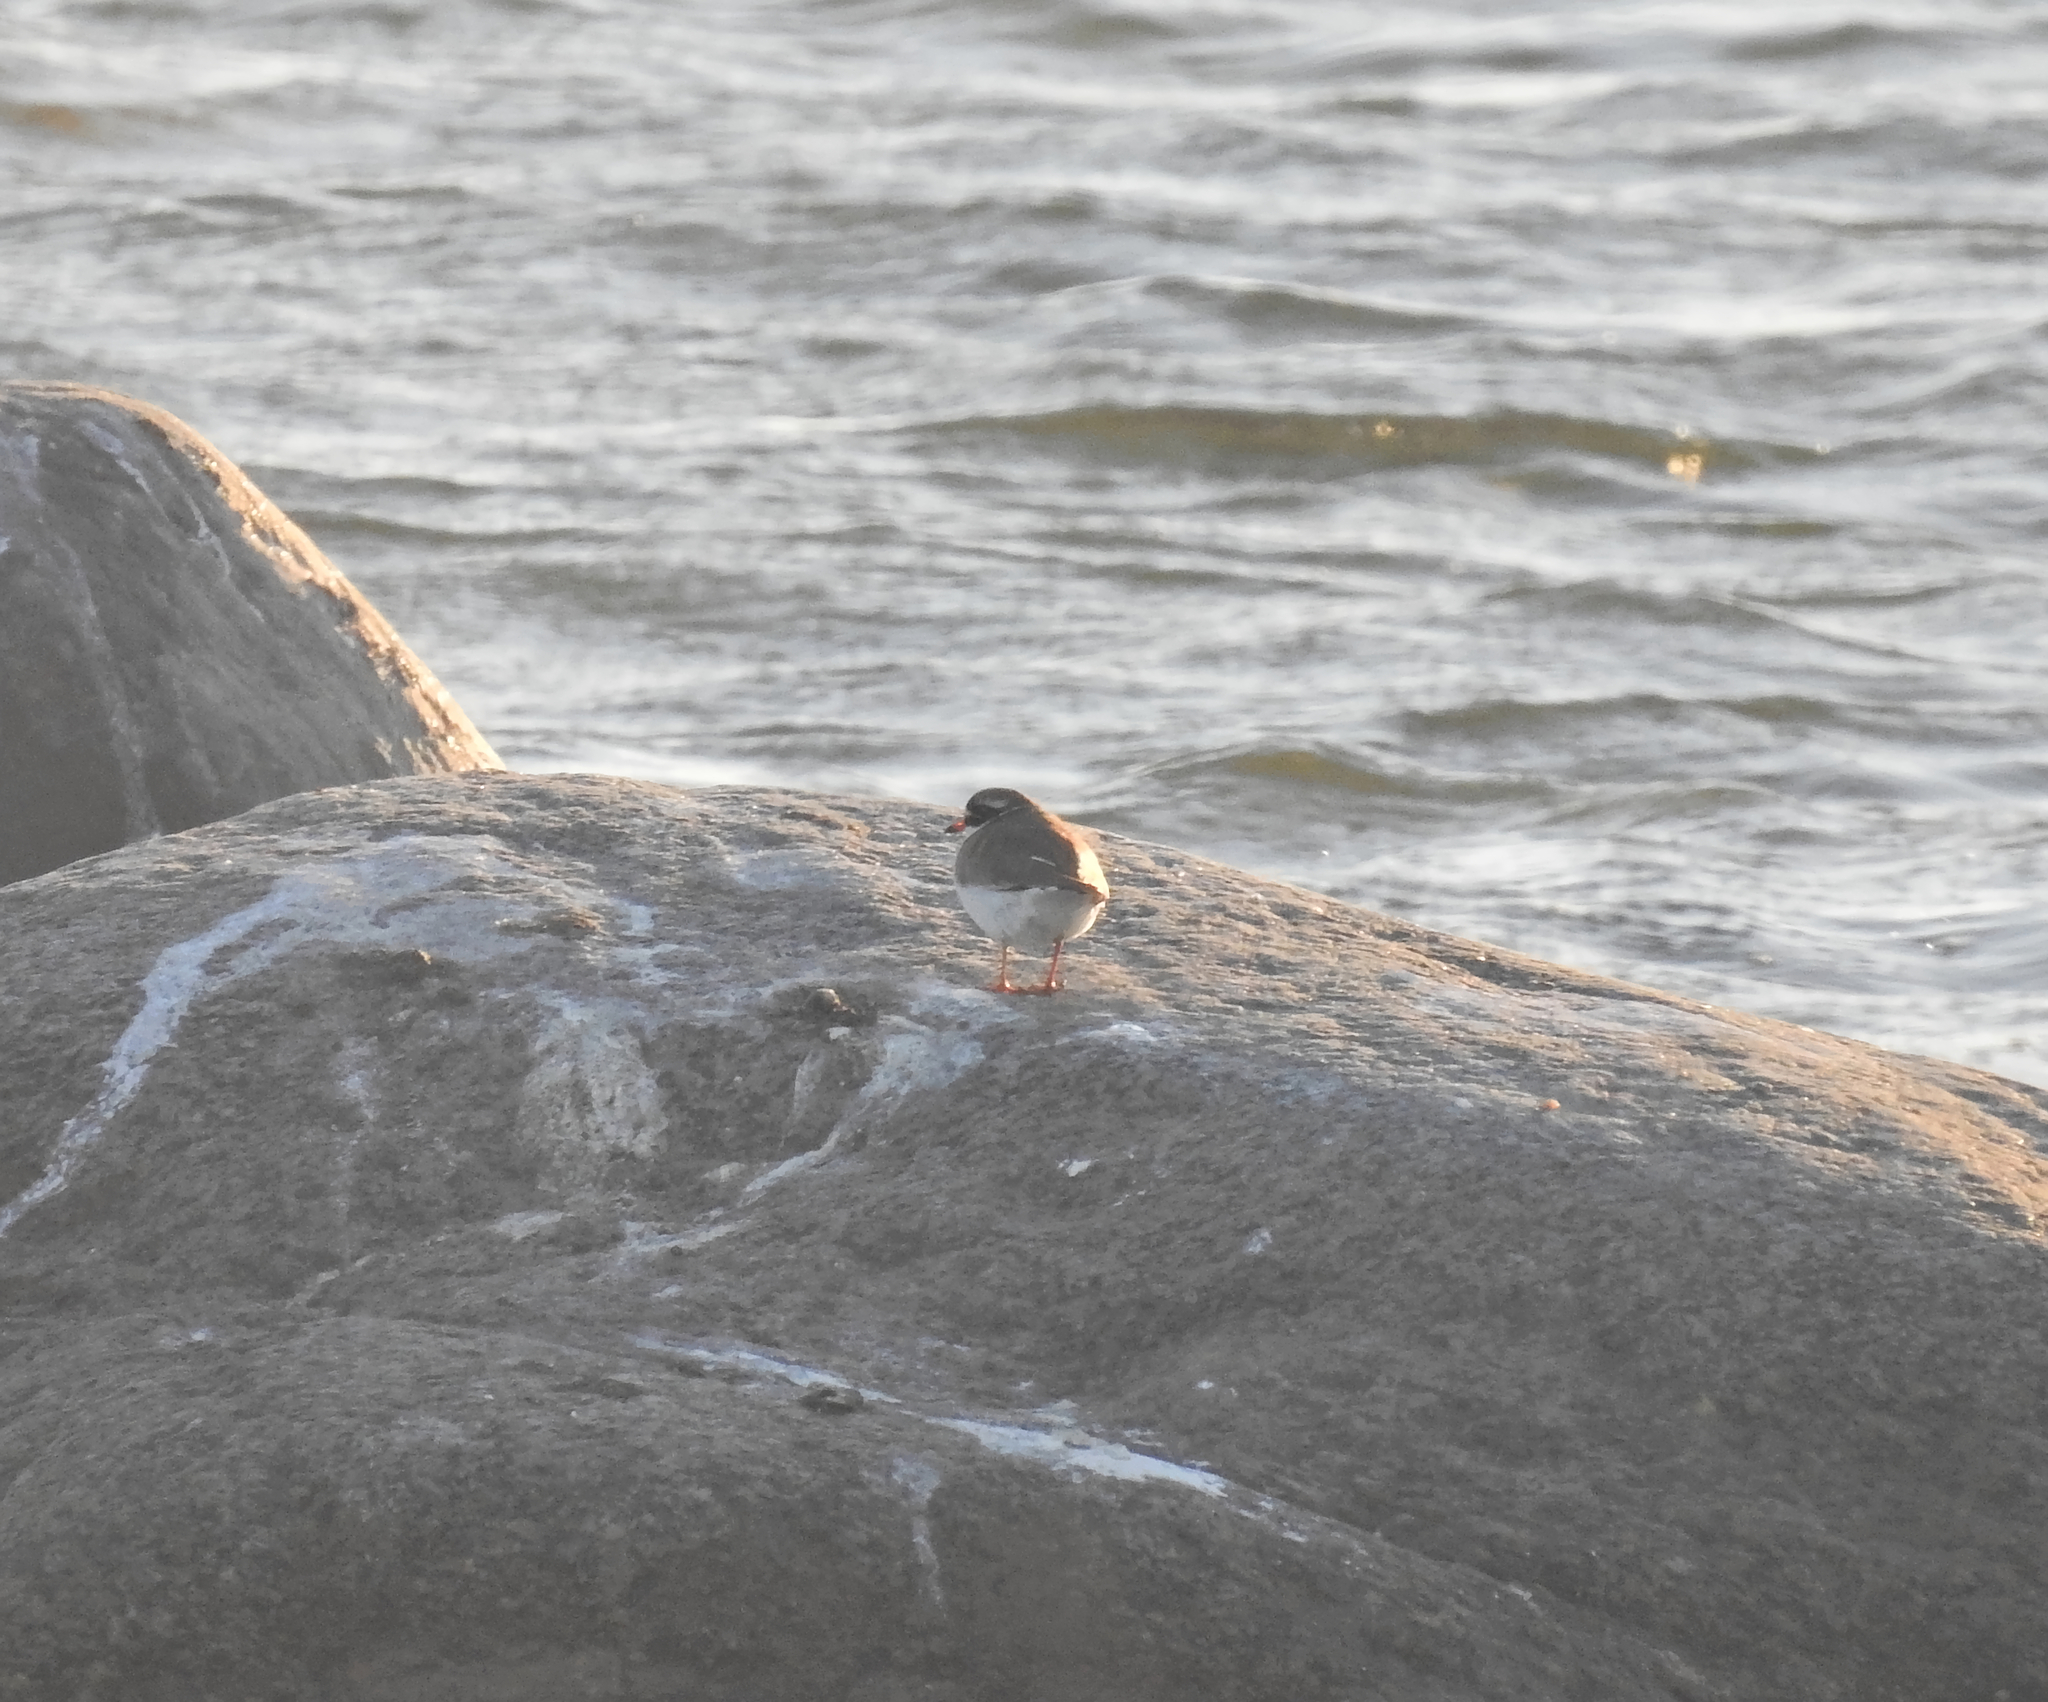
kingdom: Animalia
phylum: Chordata
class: Aves
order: Charadriiformes
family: Charadriidae
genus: Charadrius
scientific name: Charadrius hiaticula
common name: Common ringed plover
